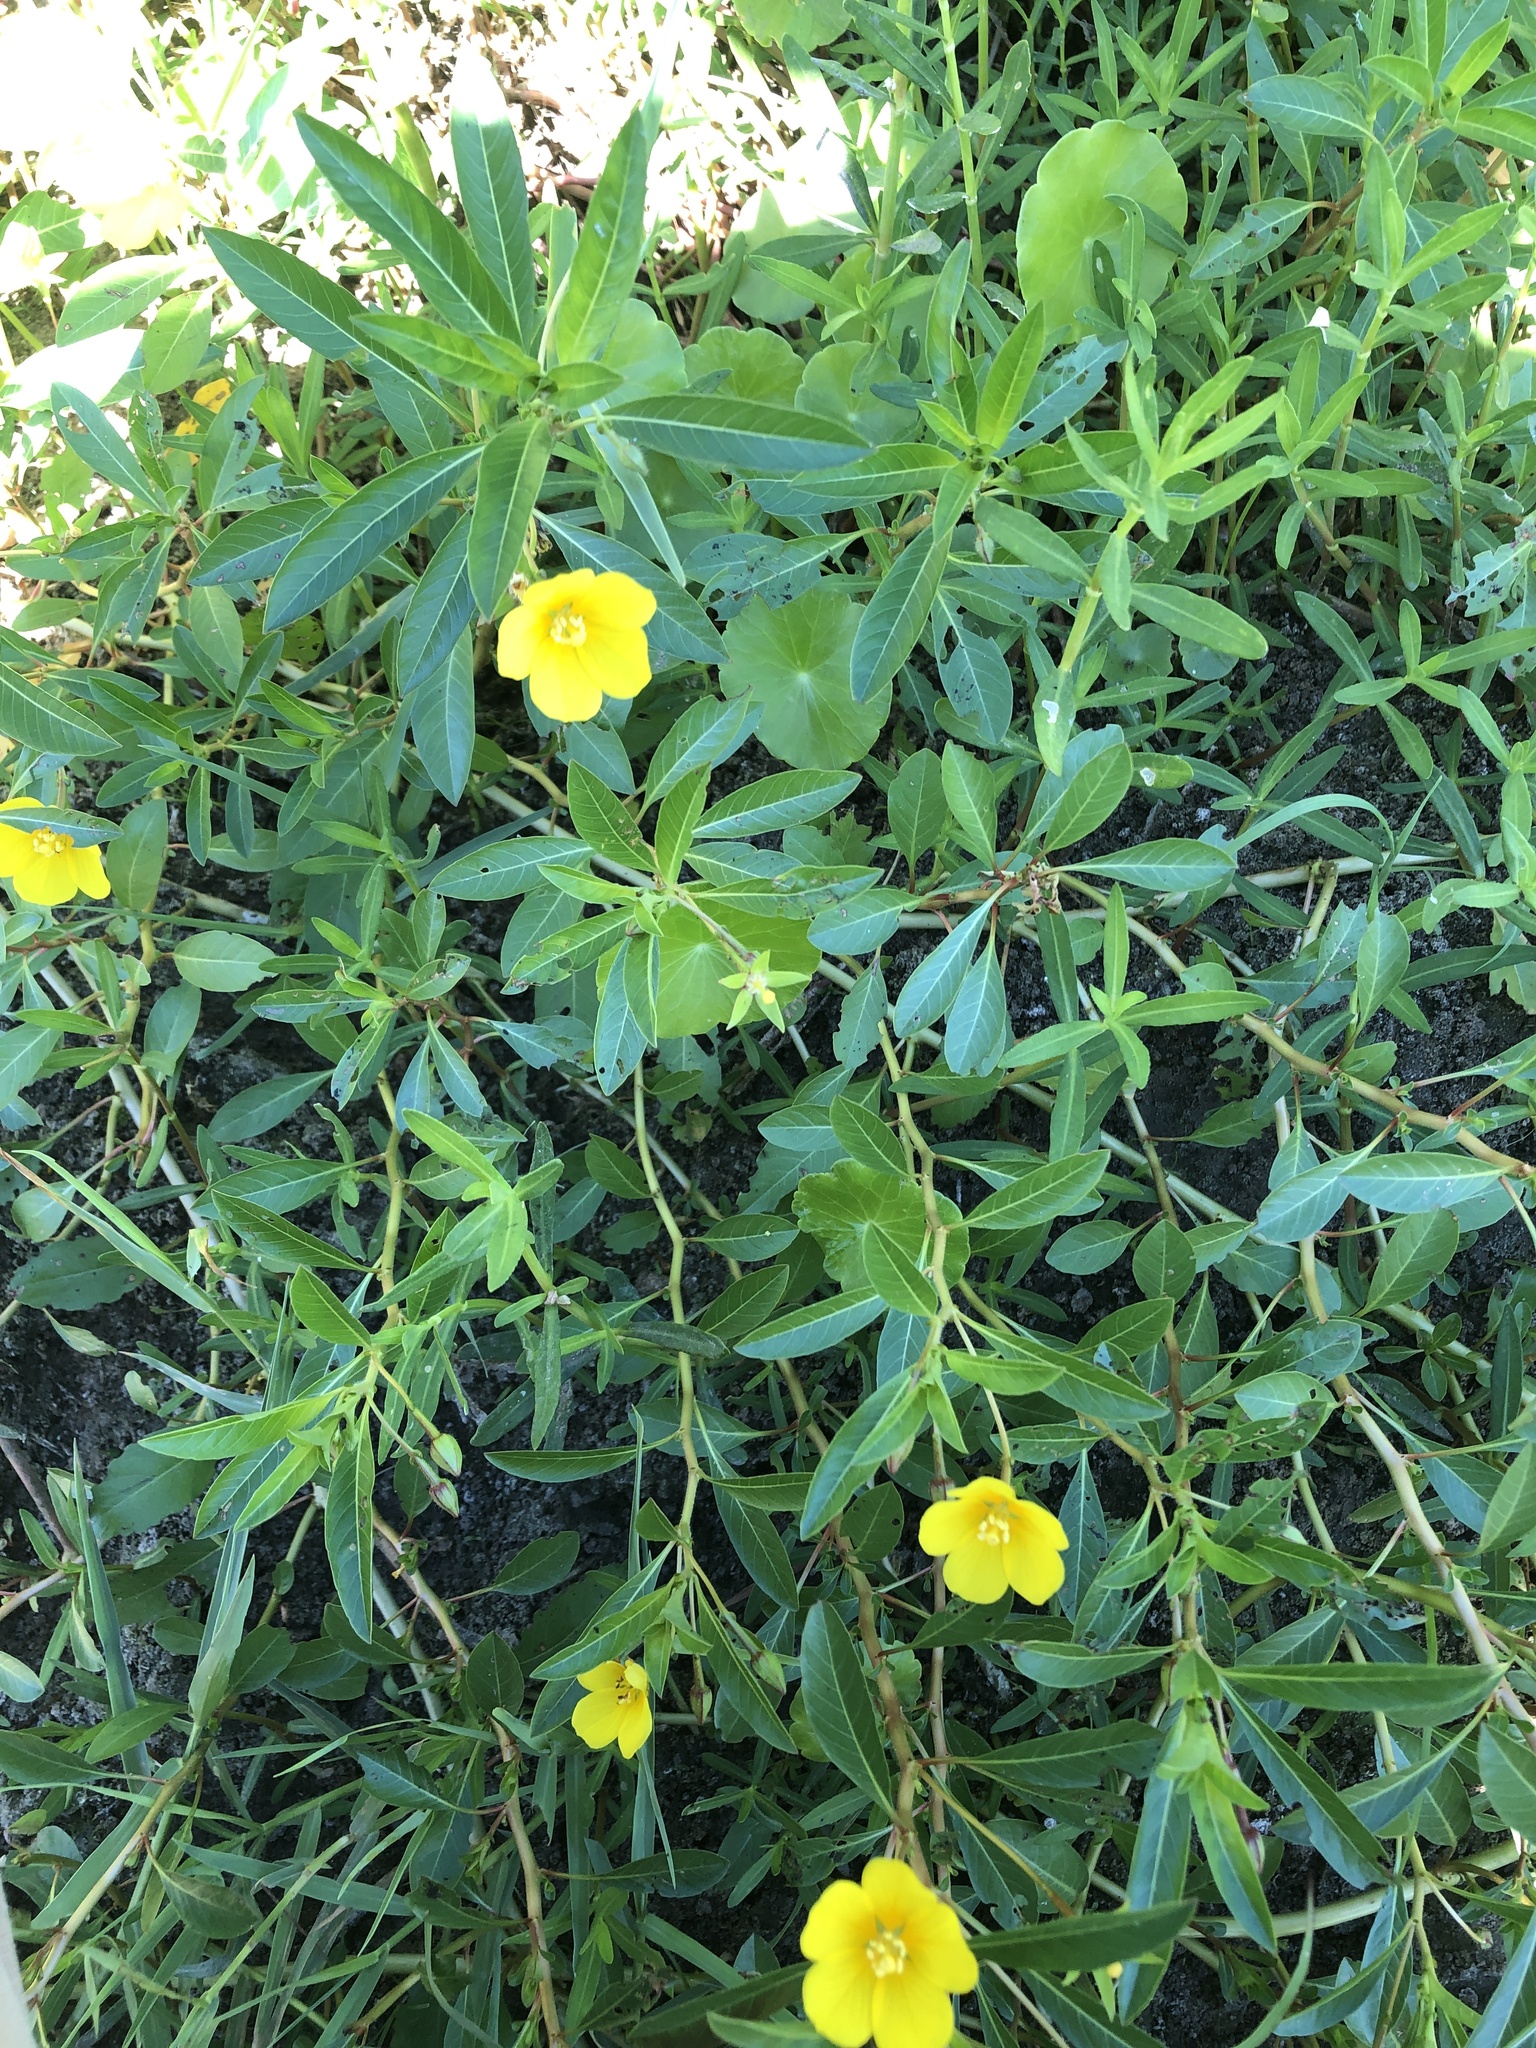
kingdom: Plantae
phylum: Tracheophyta
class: Magnoliopsida
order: Myrtales
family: Onagraceae
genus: Ludwigia
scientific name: Ludwigia peploides
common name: Floating primrose-willow
